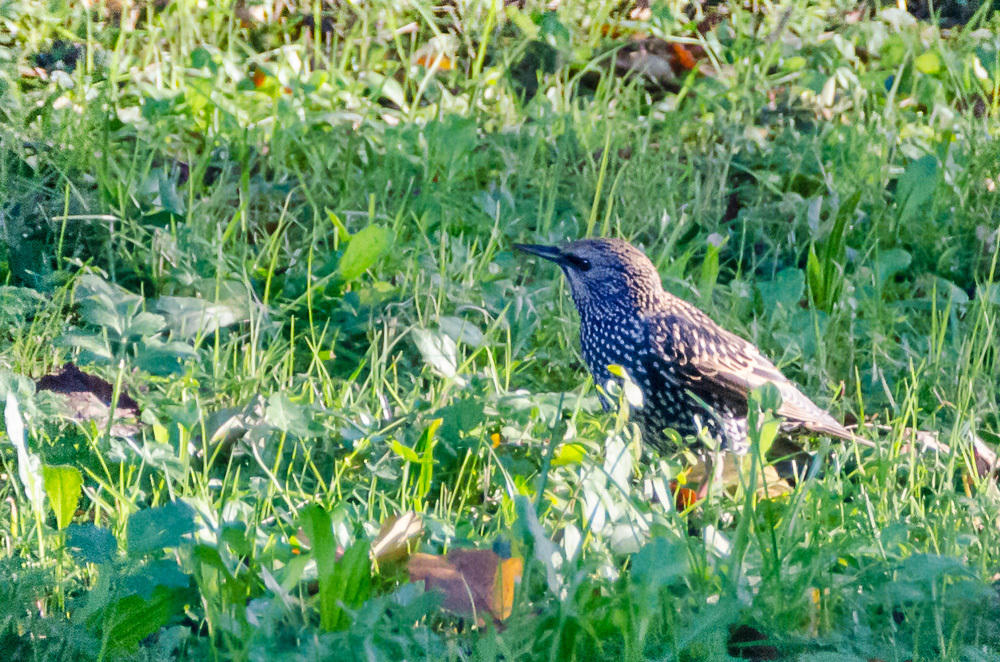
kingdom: Animalia
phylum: Chordata
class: Aves
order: Passeriformes
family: Sturnidae
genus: Sturnus
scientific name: Sturnus vulgaris
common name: Common starling
